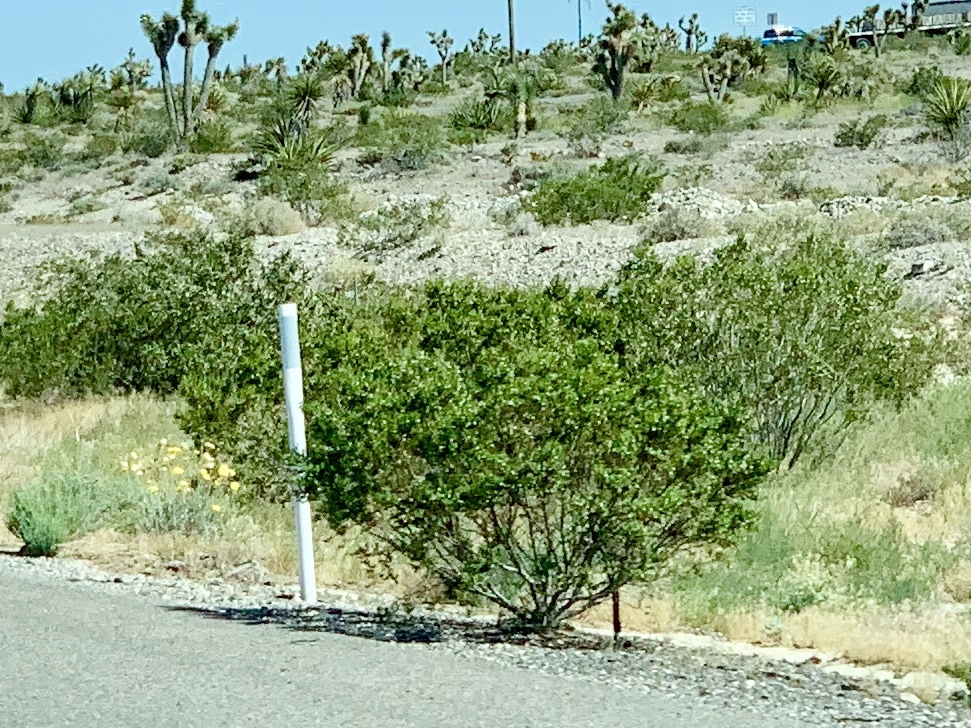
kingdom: Plantae
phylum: Tracheophyta
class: Magnoliopsida
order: Zygophyllales
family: Zygophyllaceae
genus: Larrea
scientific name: Larrea tridentata
